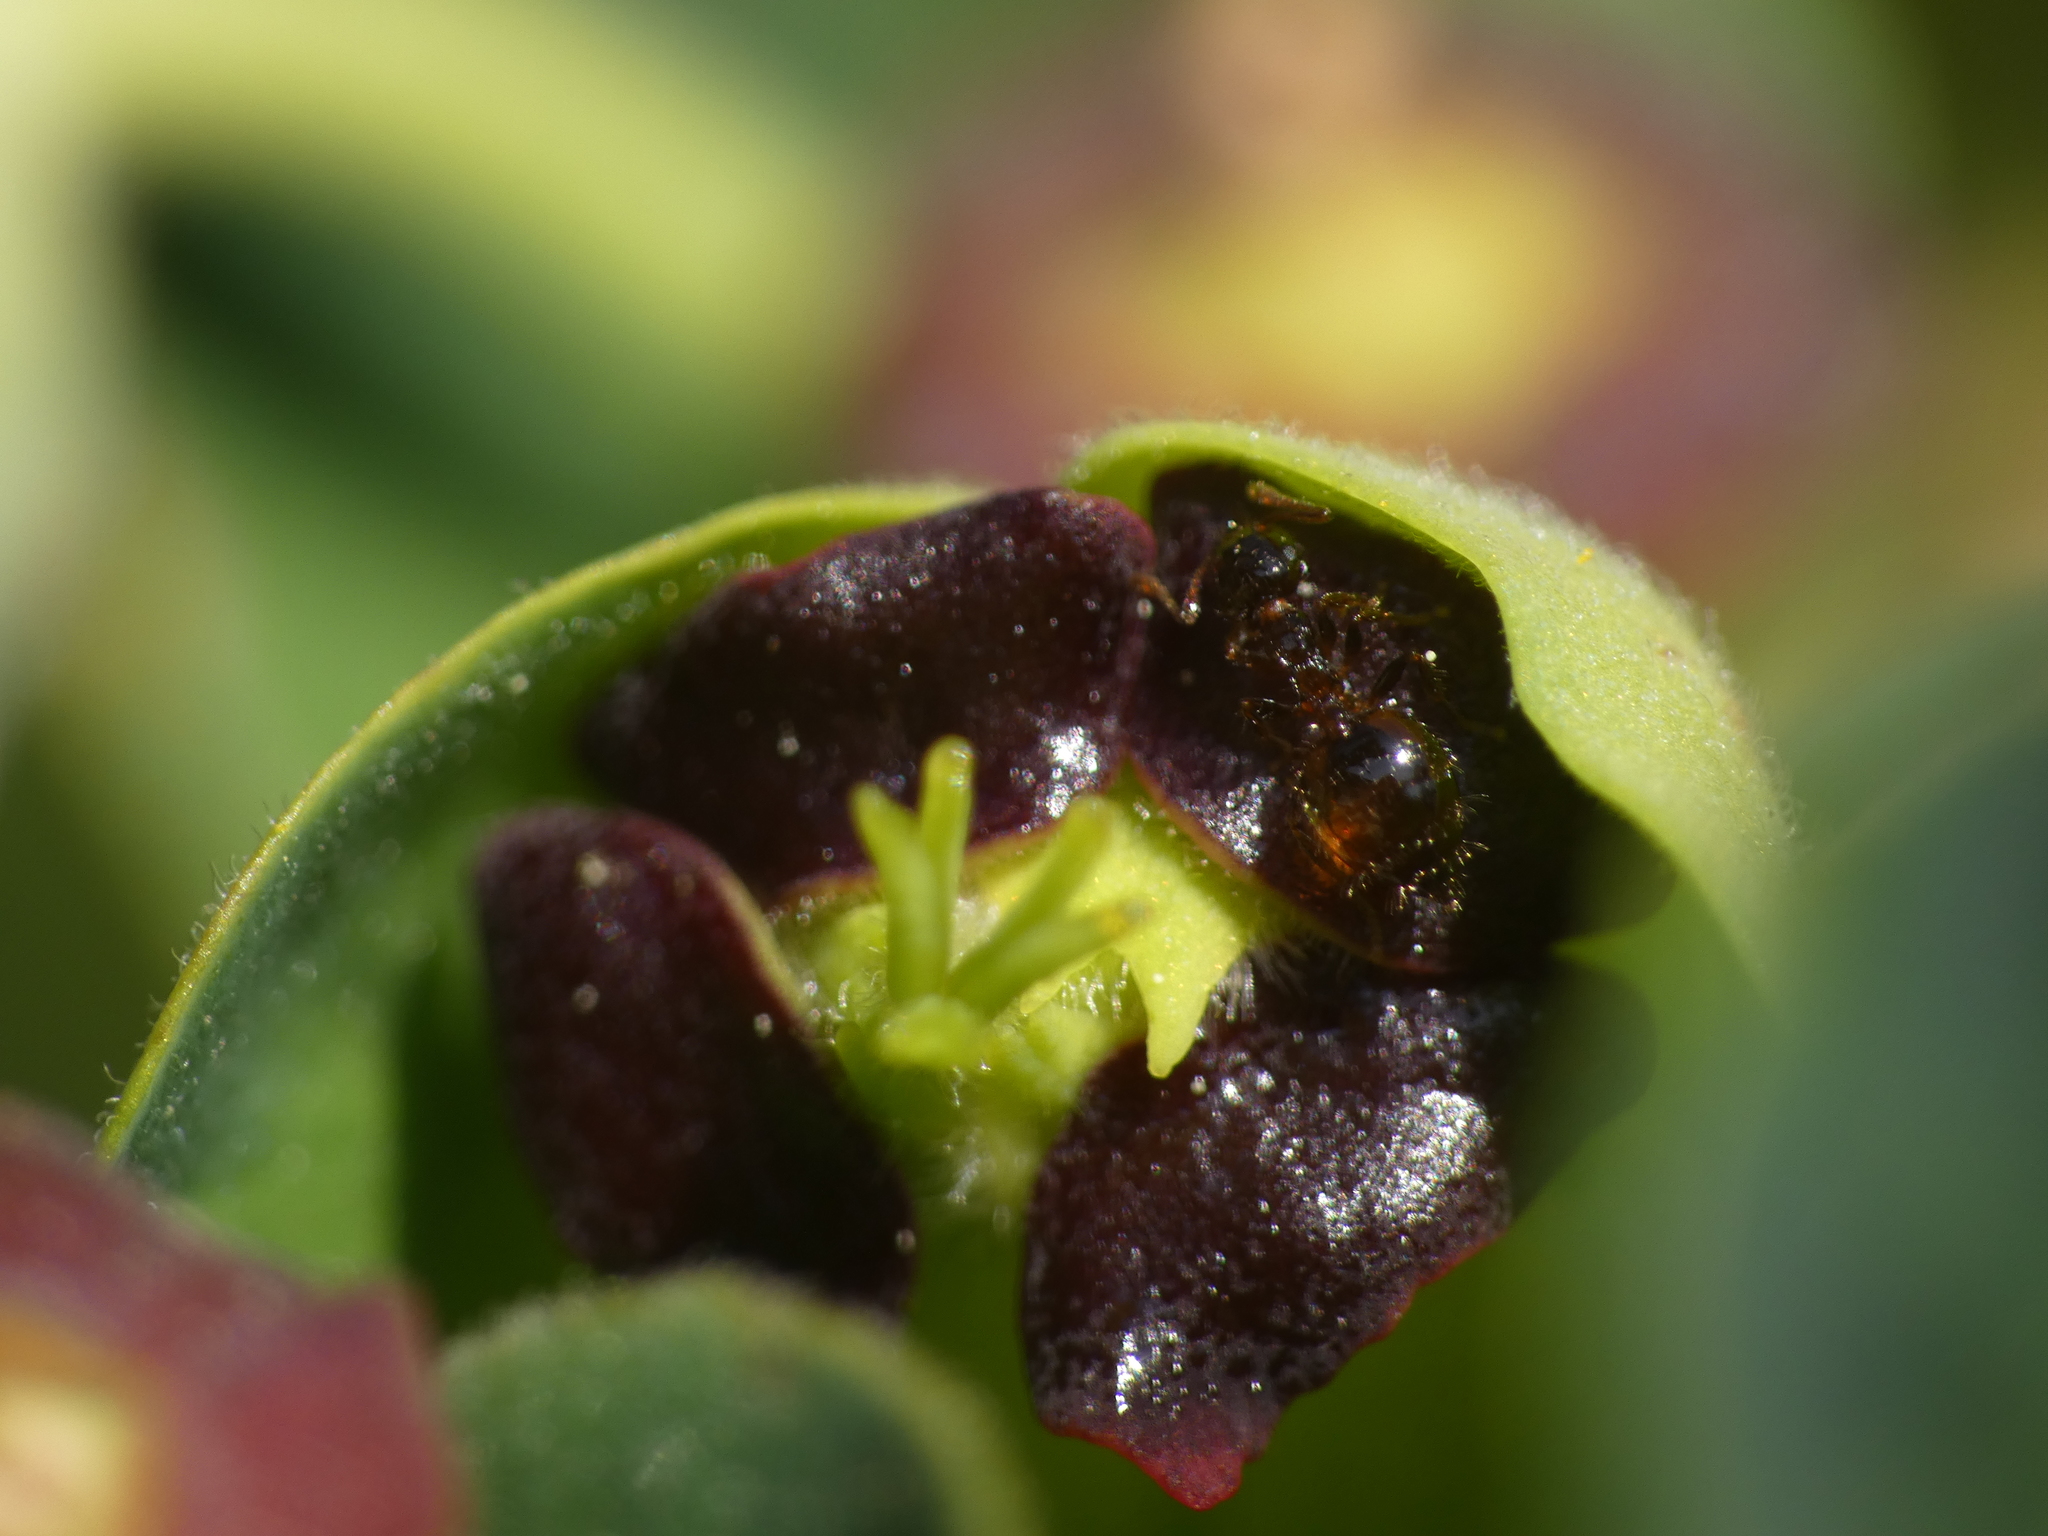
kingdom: Animalia
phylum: Arthropoda
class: Insecta
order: Hymenoptera
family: Formicidae
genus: Crematogaster
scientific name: Crematogaster sordidula
